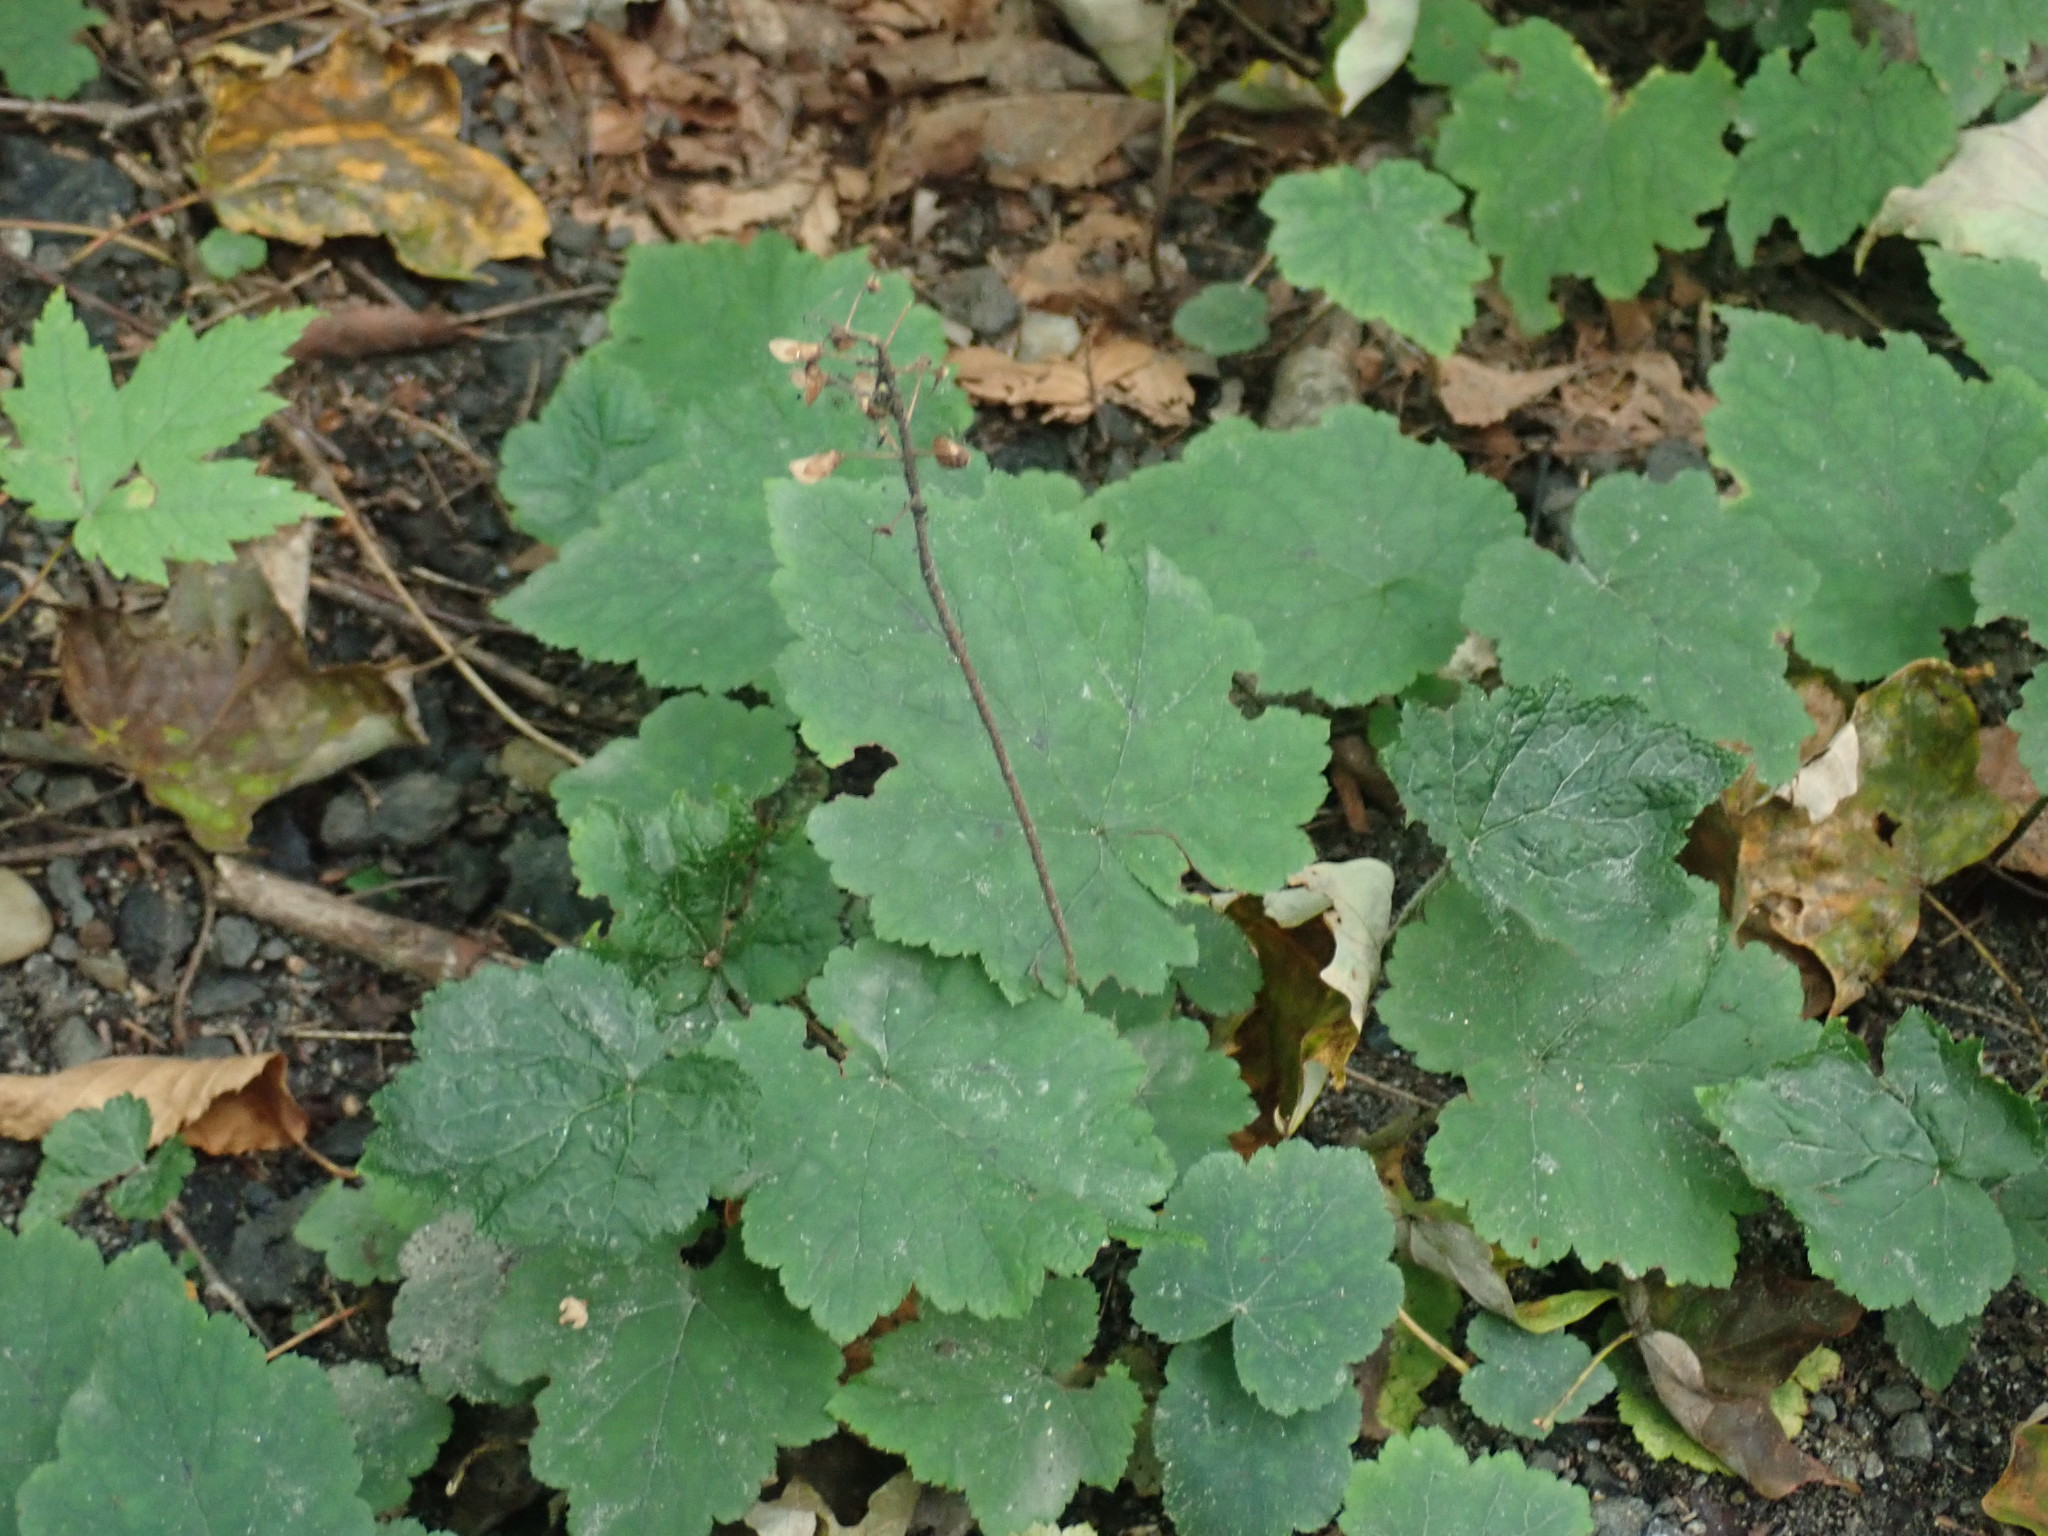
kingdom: Plantae
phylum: Tracheophyta
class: Magnoliopsida
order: Saxifragales
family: Saxifragaceae
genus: Tiarella
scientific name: Tiarella stolonifera
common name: Stoloniferous foamflower
